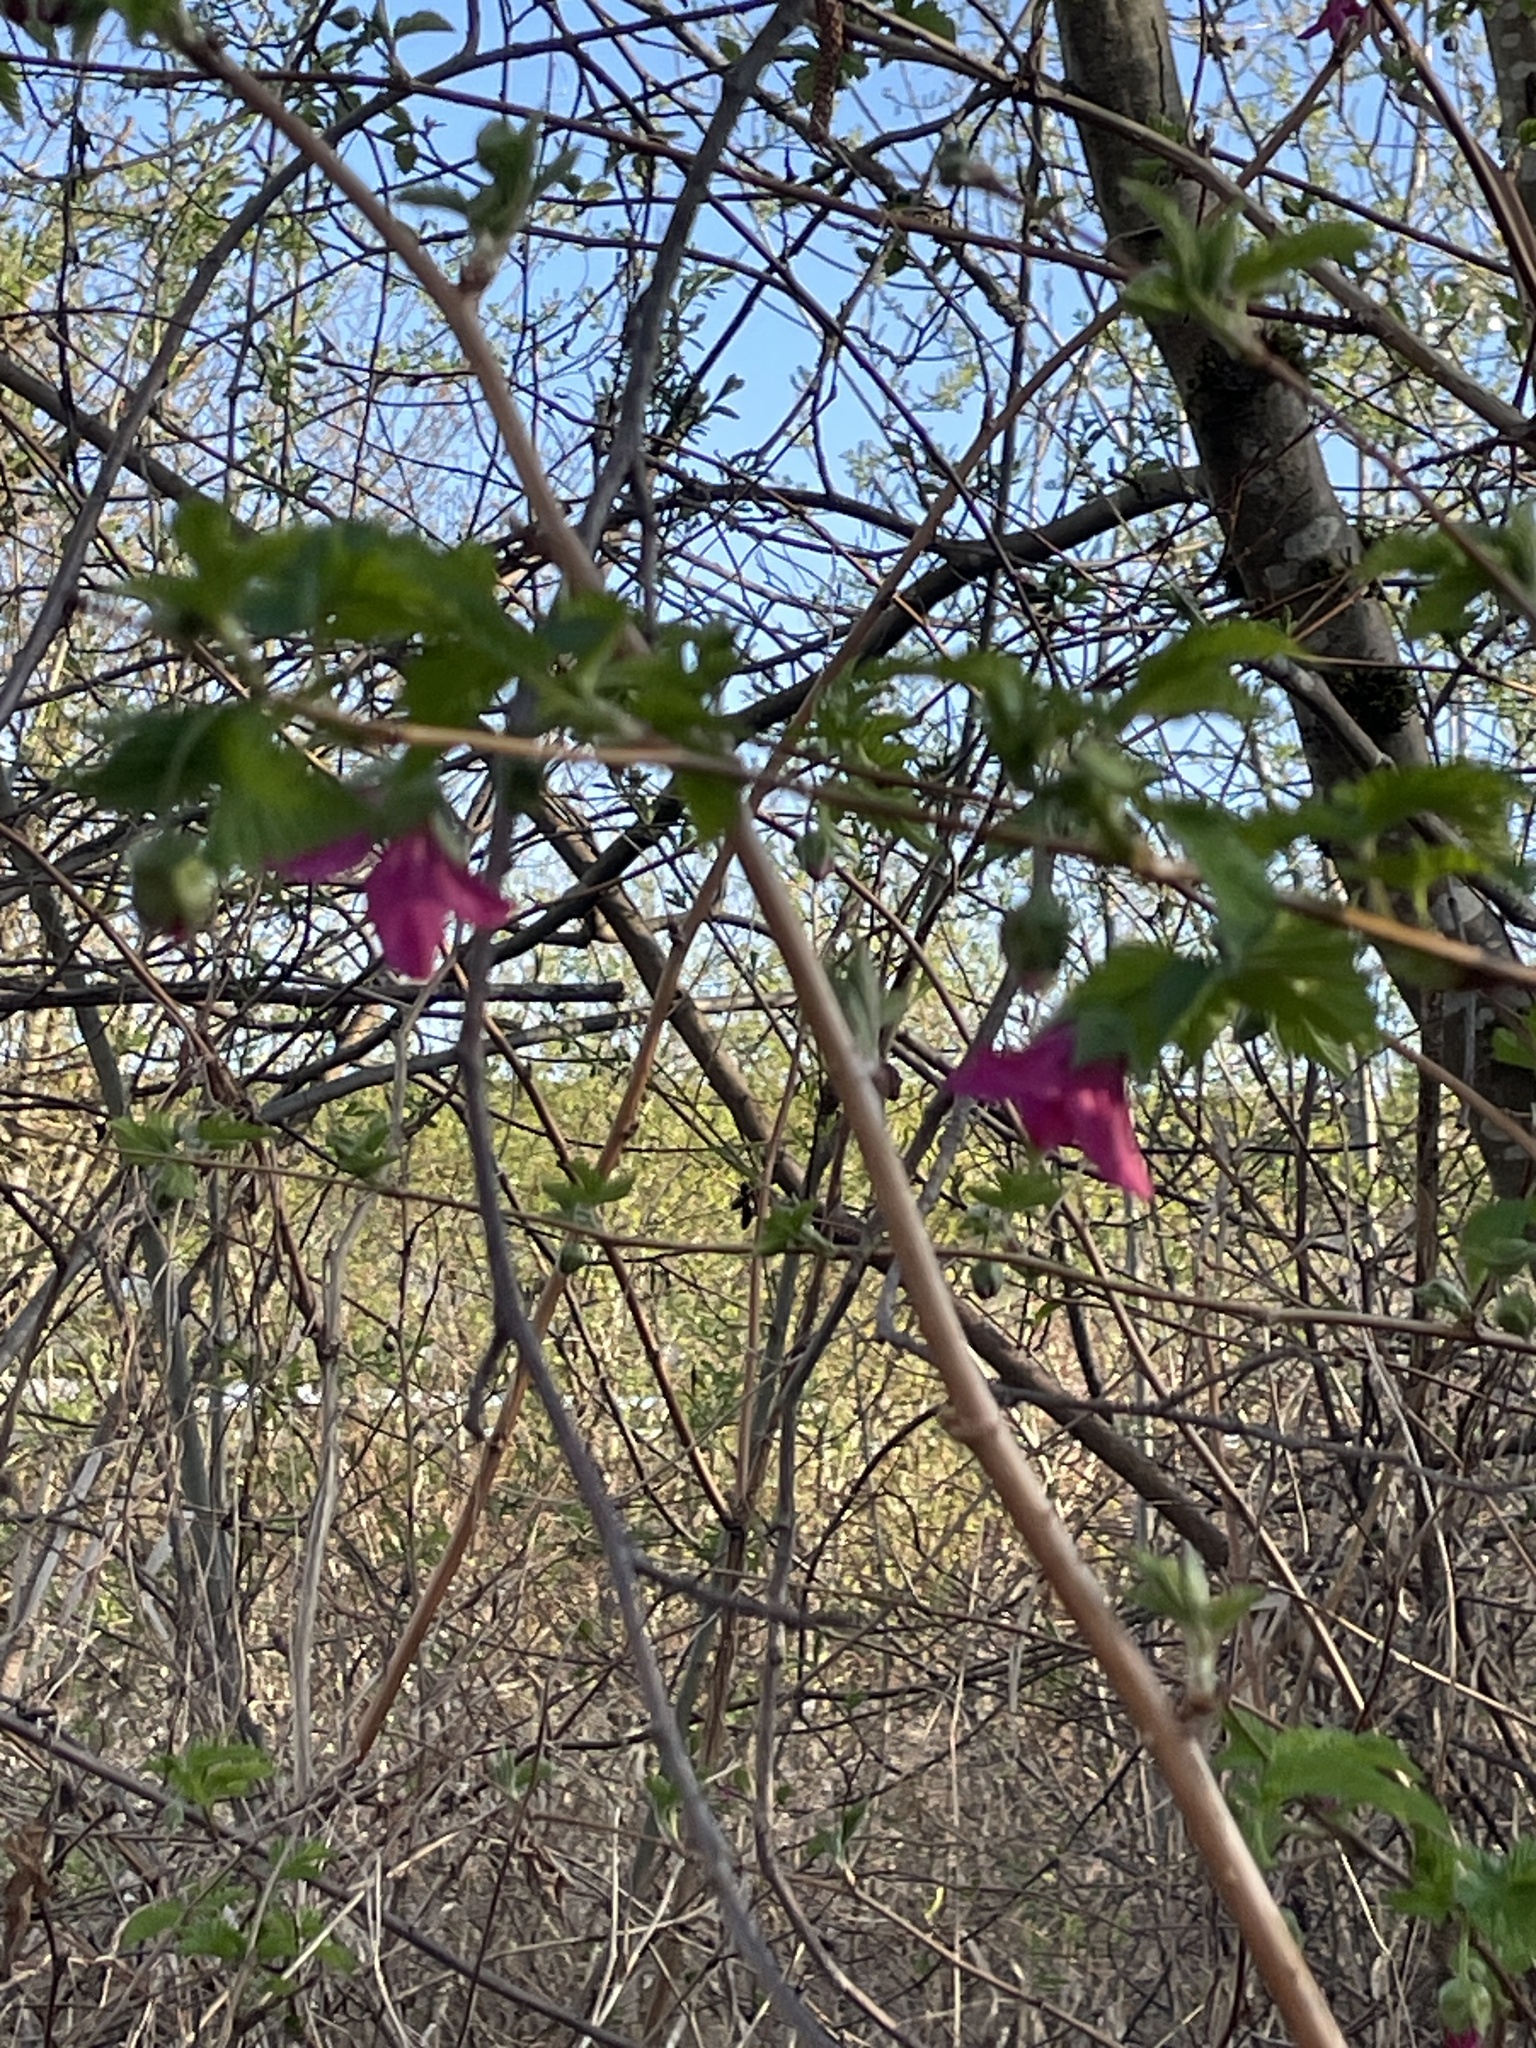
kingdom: Plantae
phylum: Tracheophyta
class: Magnoliopsida
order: Rosales
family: Rosaceae
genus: Rubus
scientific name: Rubus spectabilis
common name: Salmonberry
